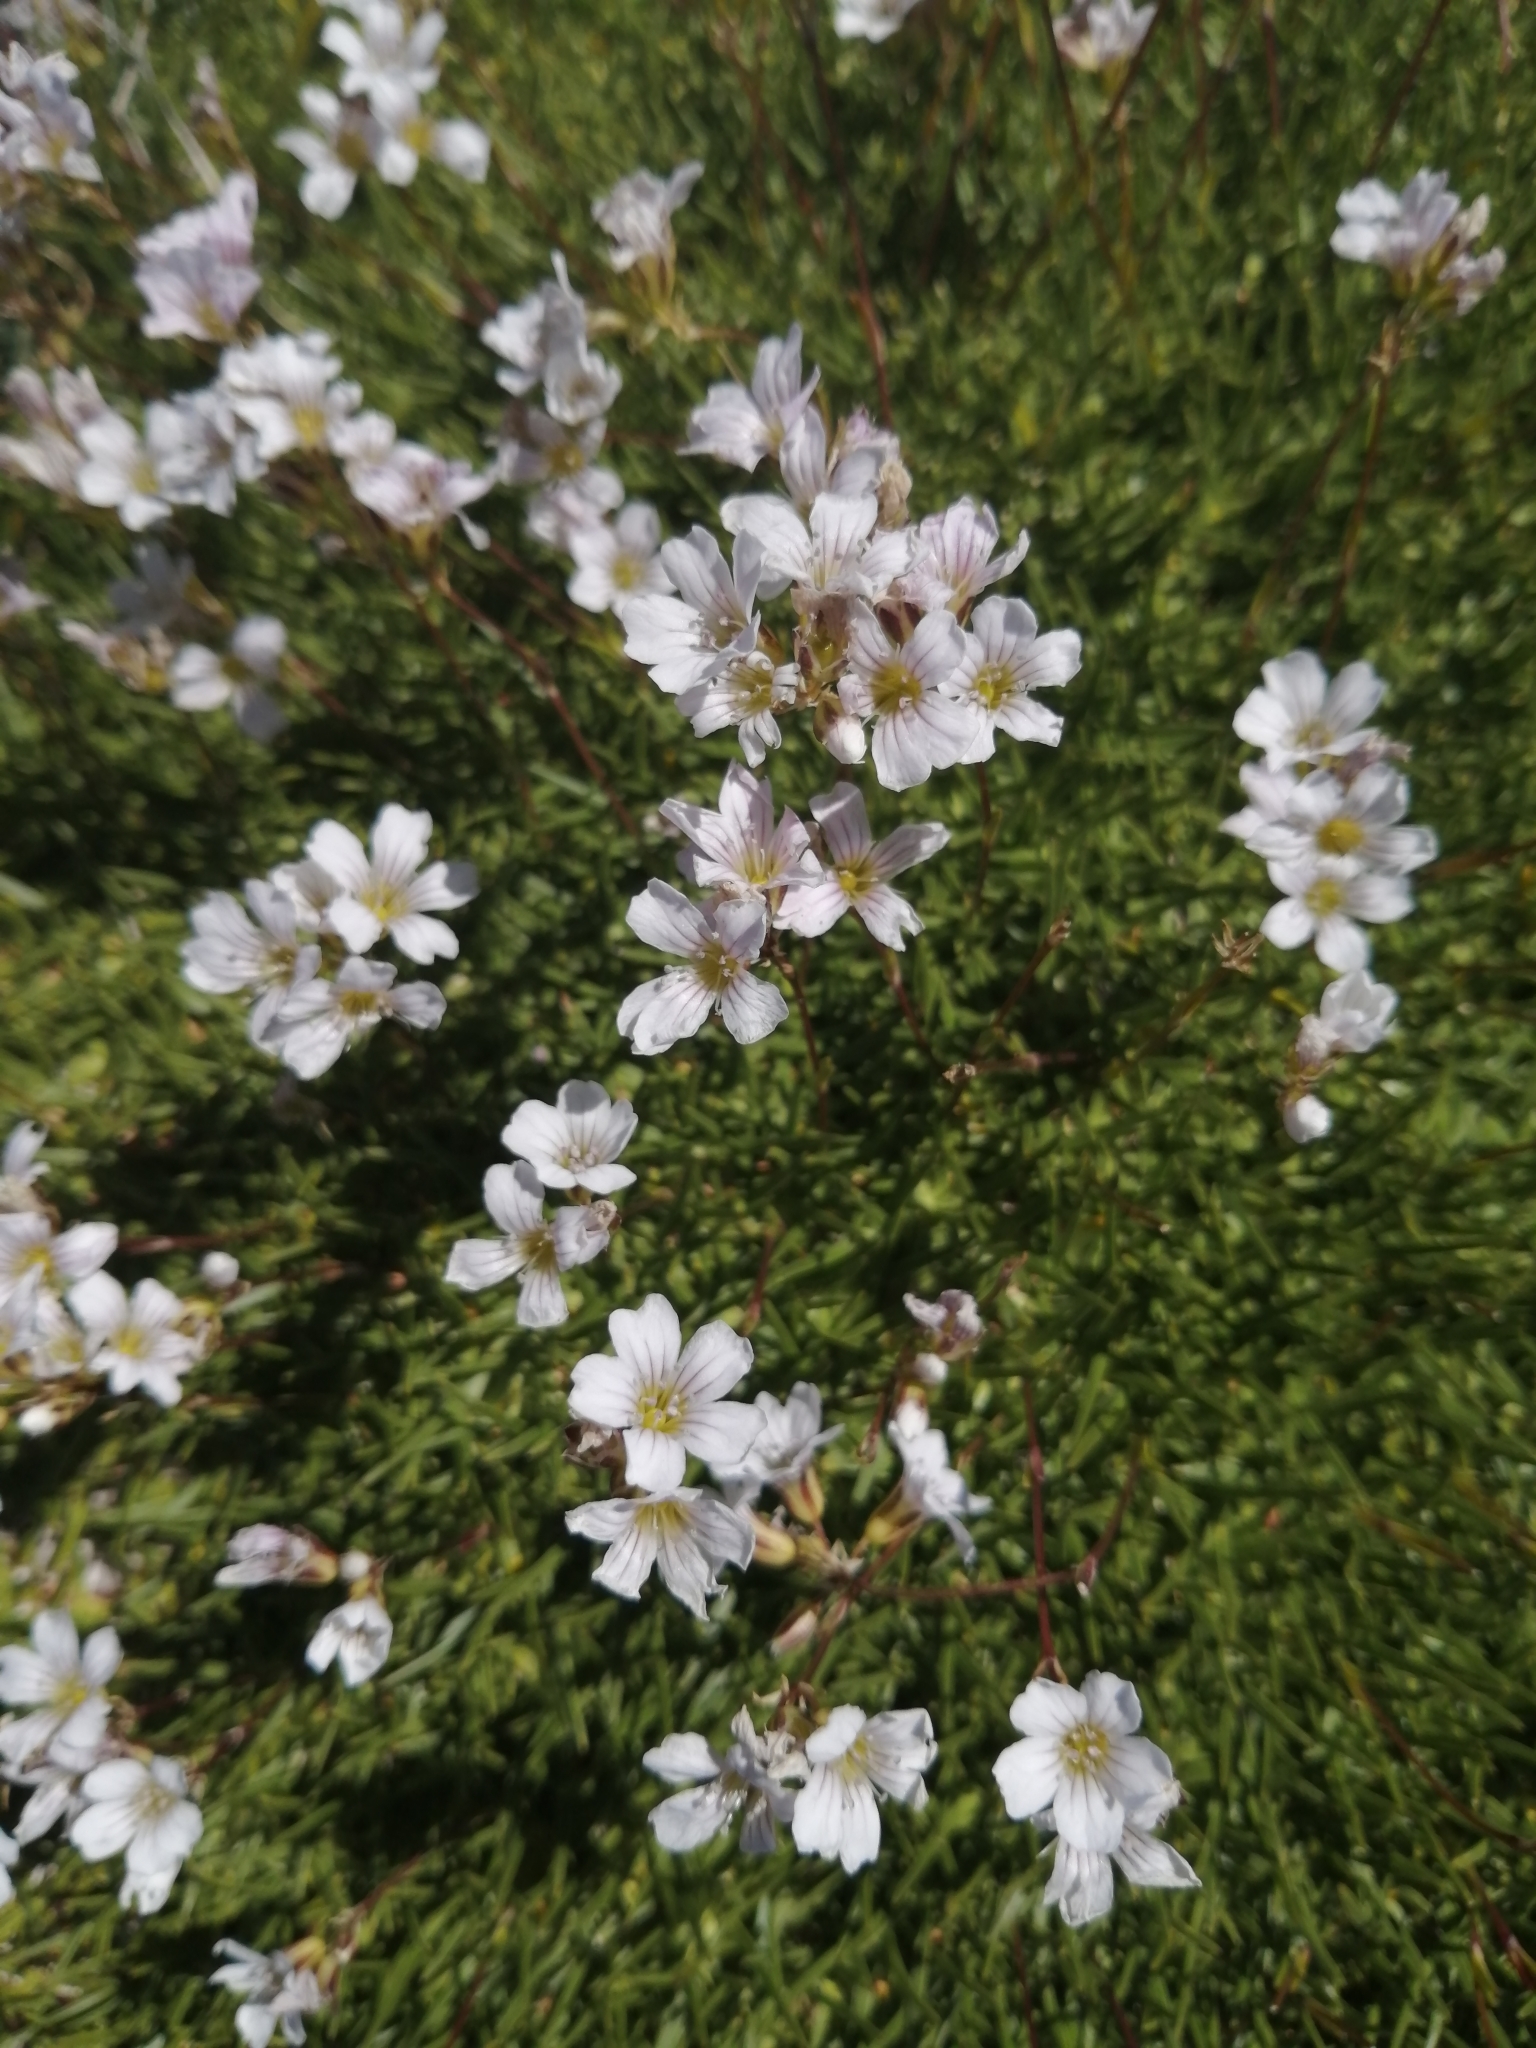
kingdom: Plantae
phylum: Tracheophyta
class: Magnoliopsida
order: Caryophyllales
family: Caryophyllaceae
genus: Gypsophila
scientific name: Gypsophila tenuifolia
